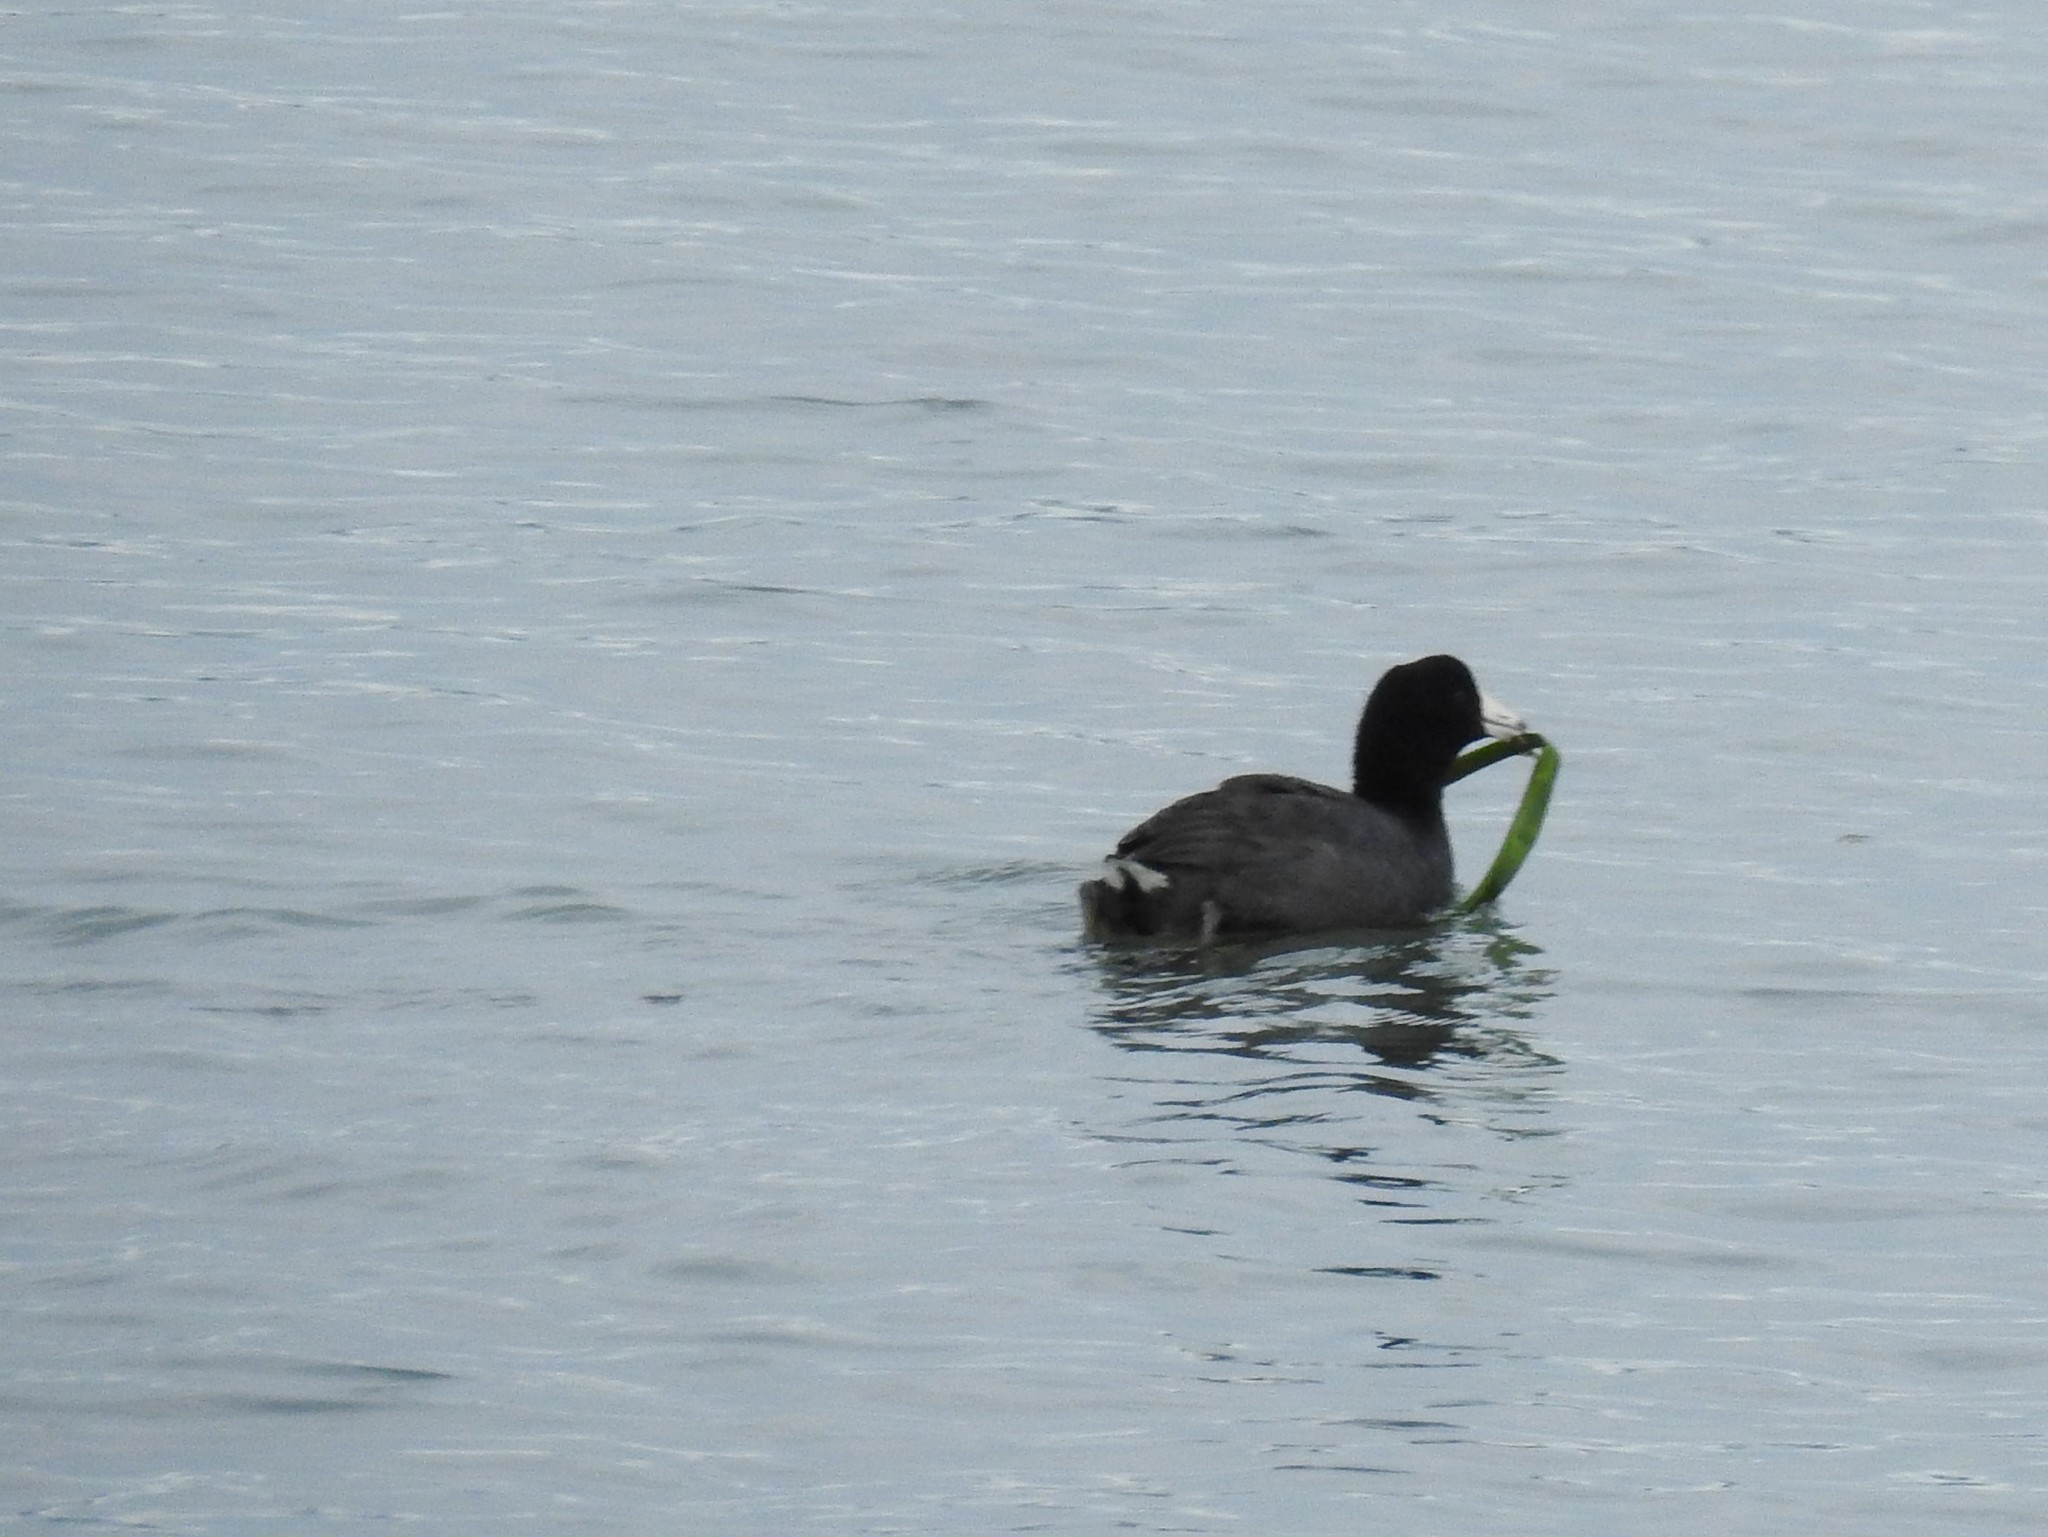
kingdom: Animalia
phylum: Chordata
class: Aves
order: Gruiformes
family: Rallidae
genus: Fulica
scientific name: Fulica americana
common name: American coot
